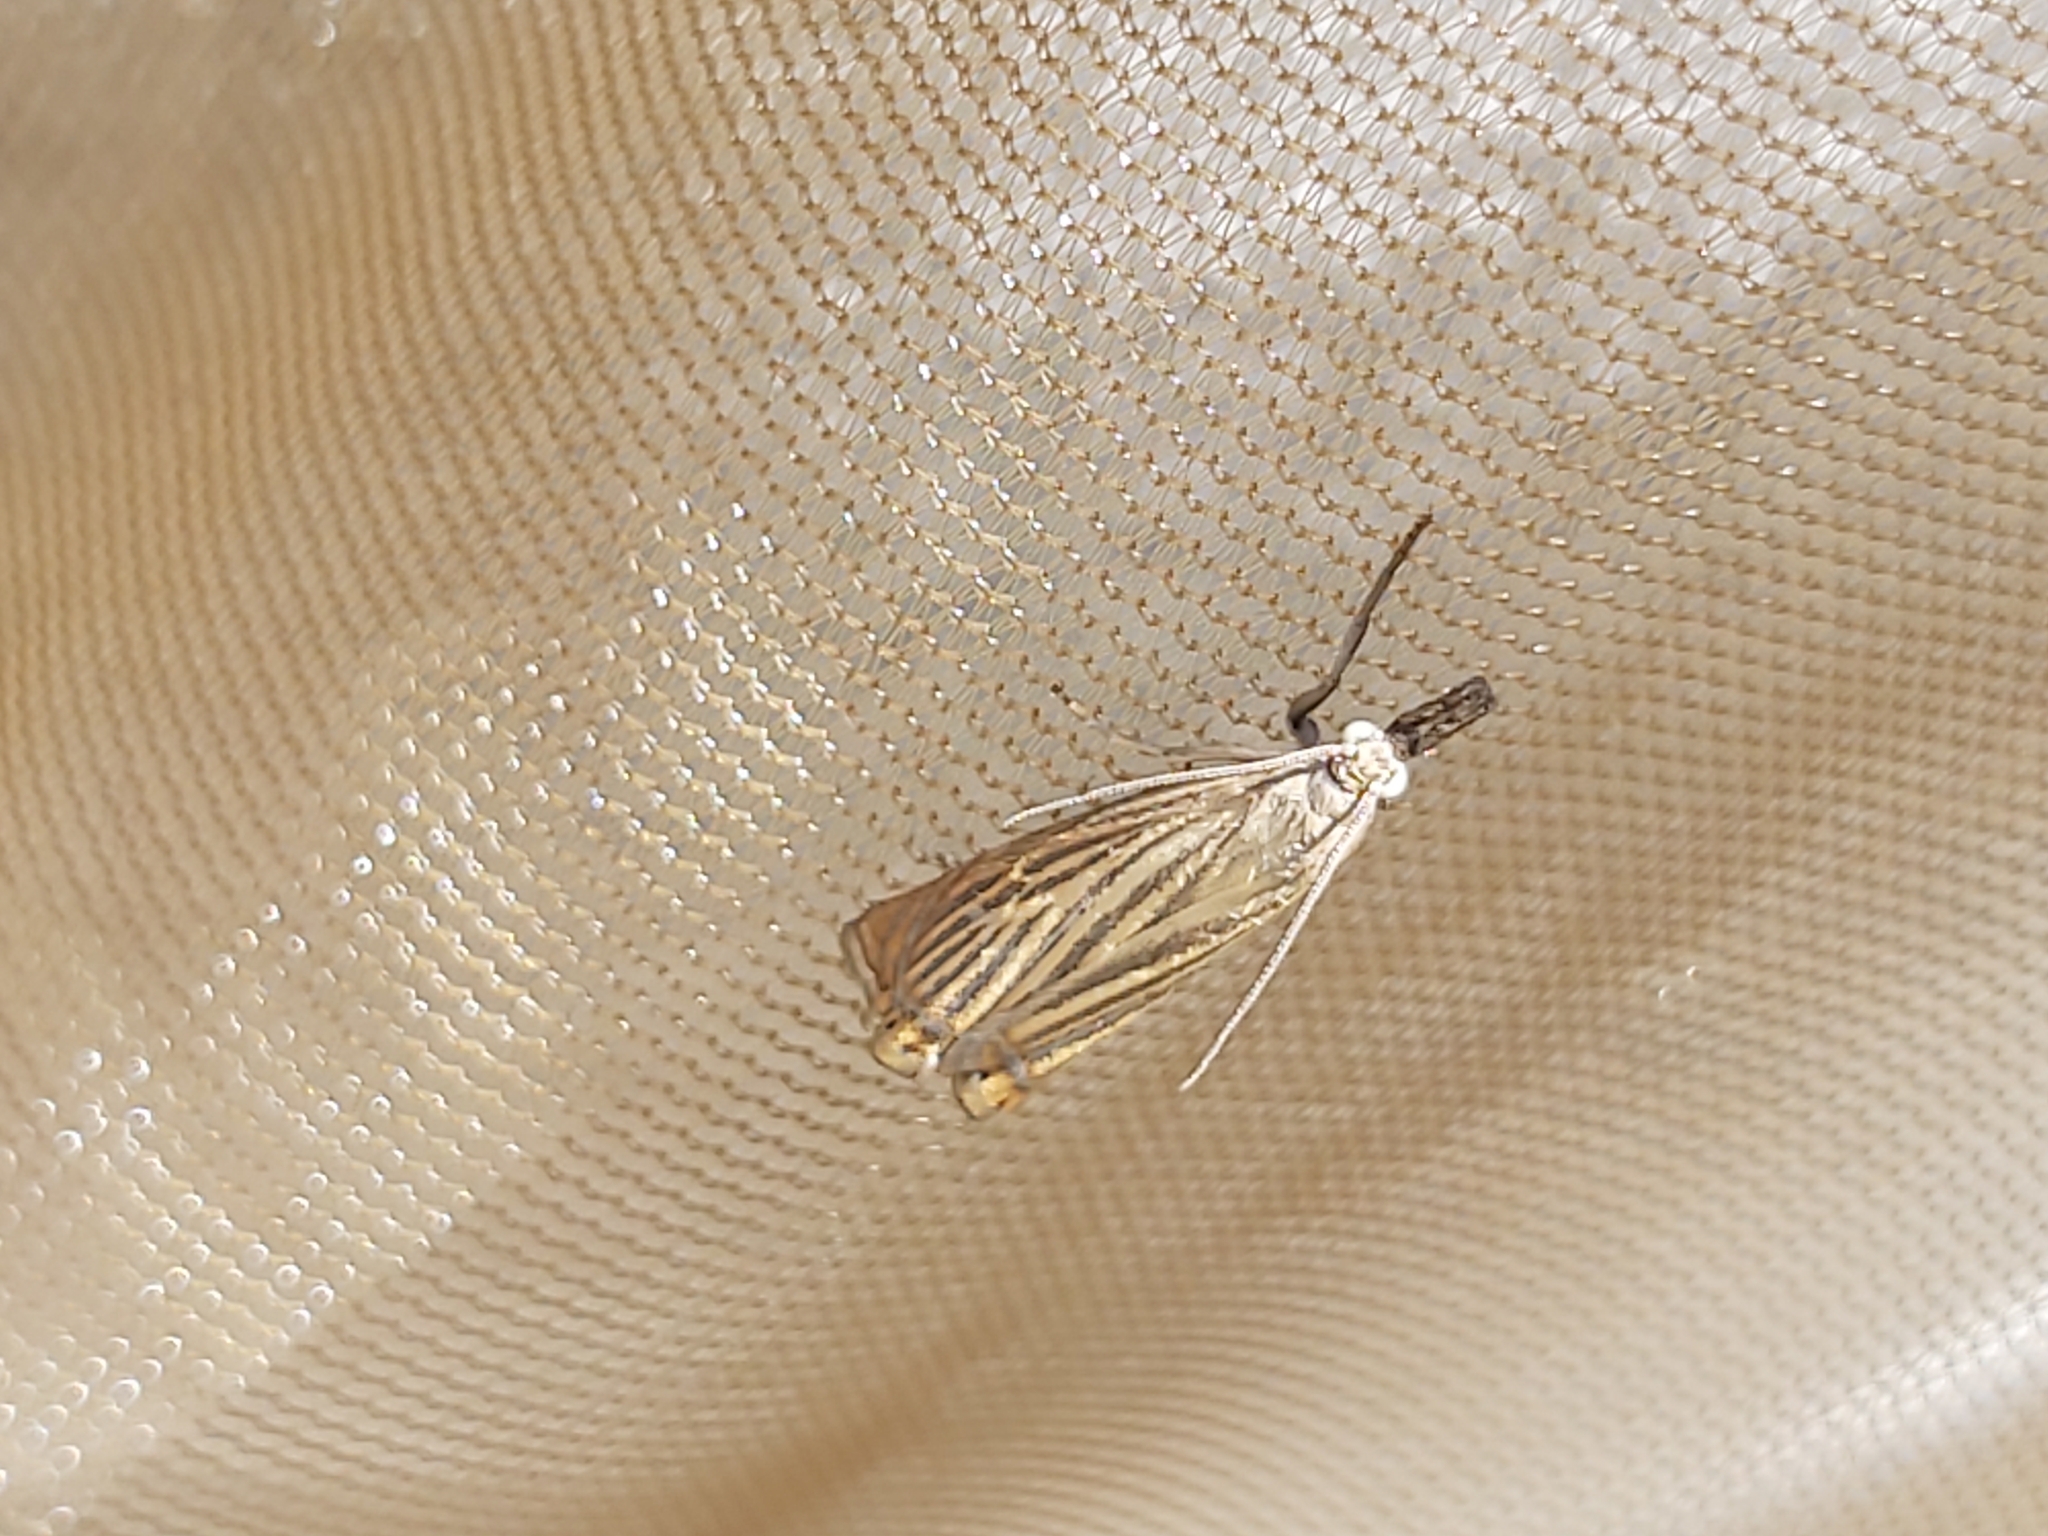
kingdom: Animalia
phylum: Arthropoda
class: Insecta
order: Lepidoptera
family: Crambidae
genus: Chrysoteuchia
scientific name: Chrysoteuchia culmella
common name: Garden grass-veneer
